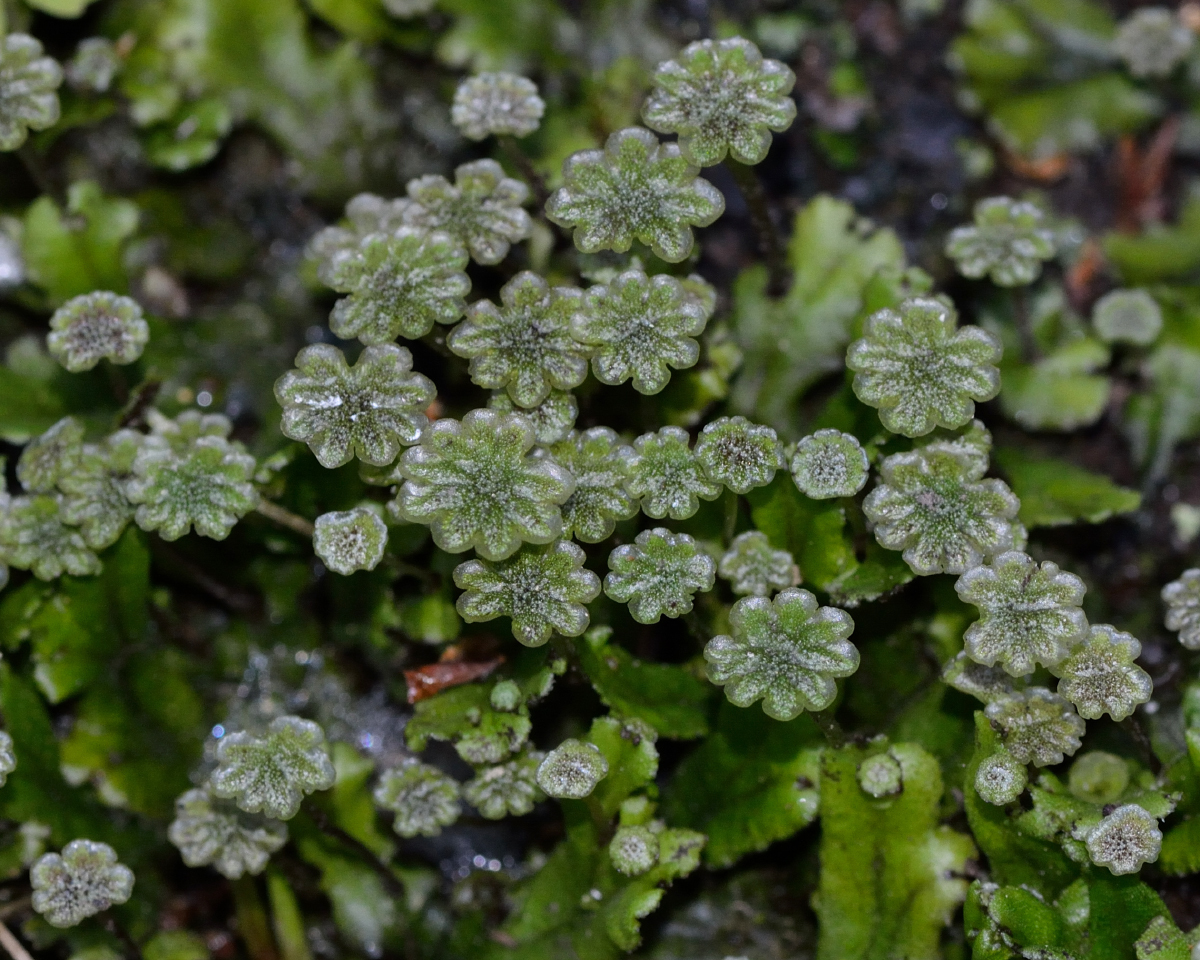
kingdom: Plantae
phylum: Marchantiophyta
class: Marchantiopsida
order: Marchantiales
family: Marchantiaceae
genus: Marchantia
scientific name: Marchantia polymorpha
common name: Common liverwort
